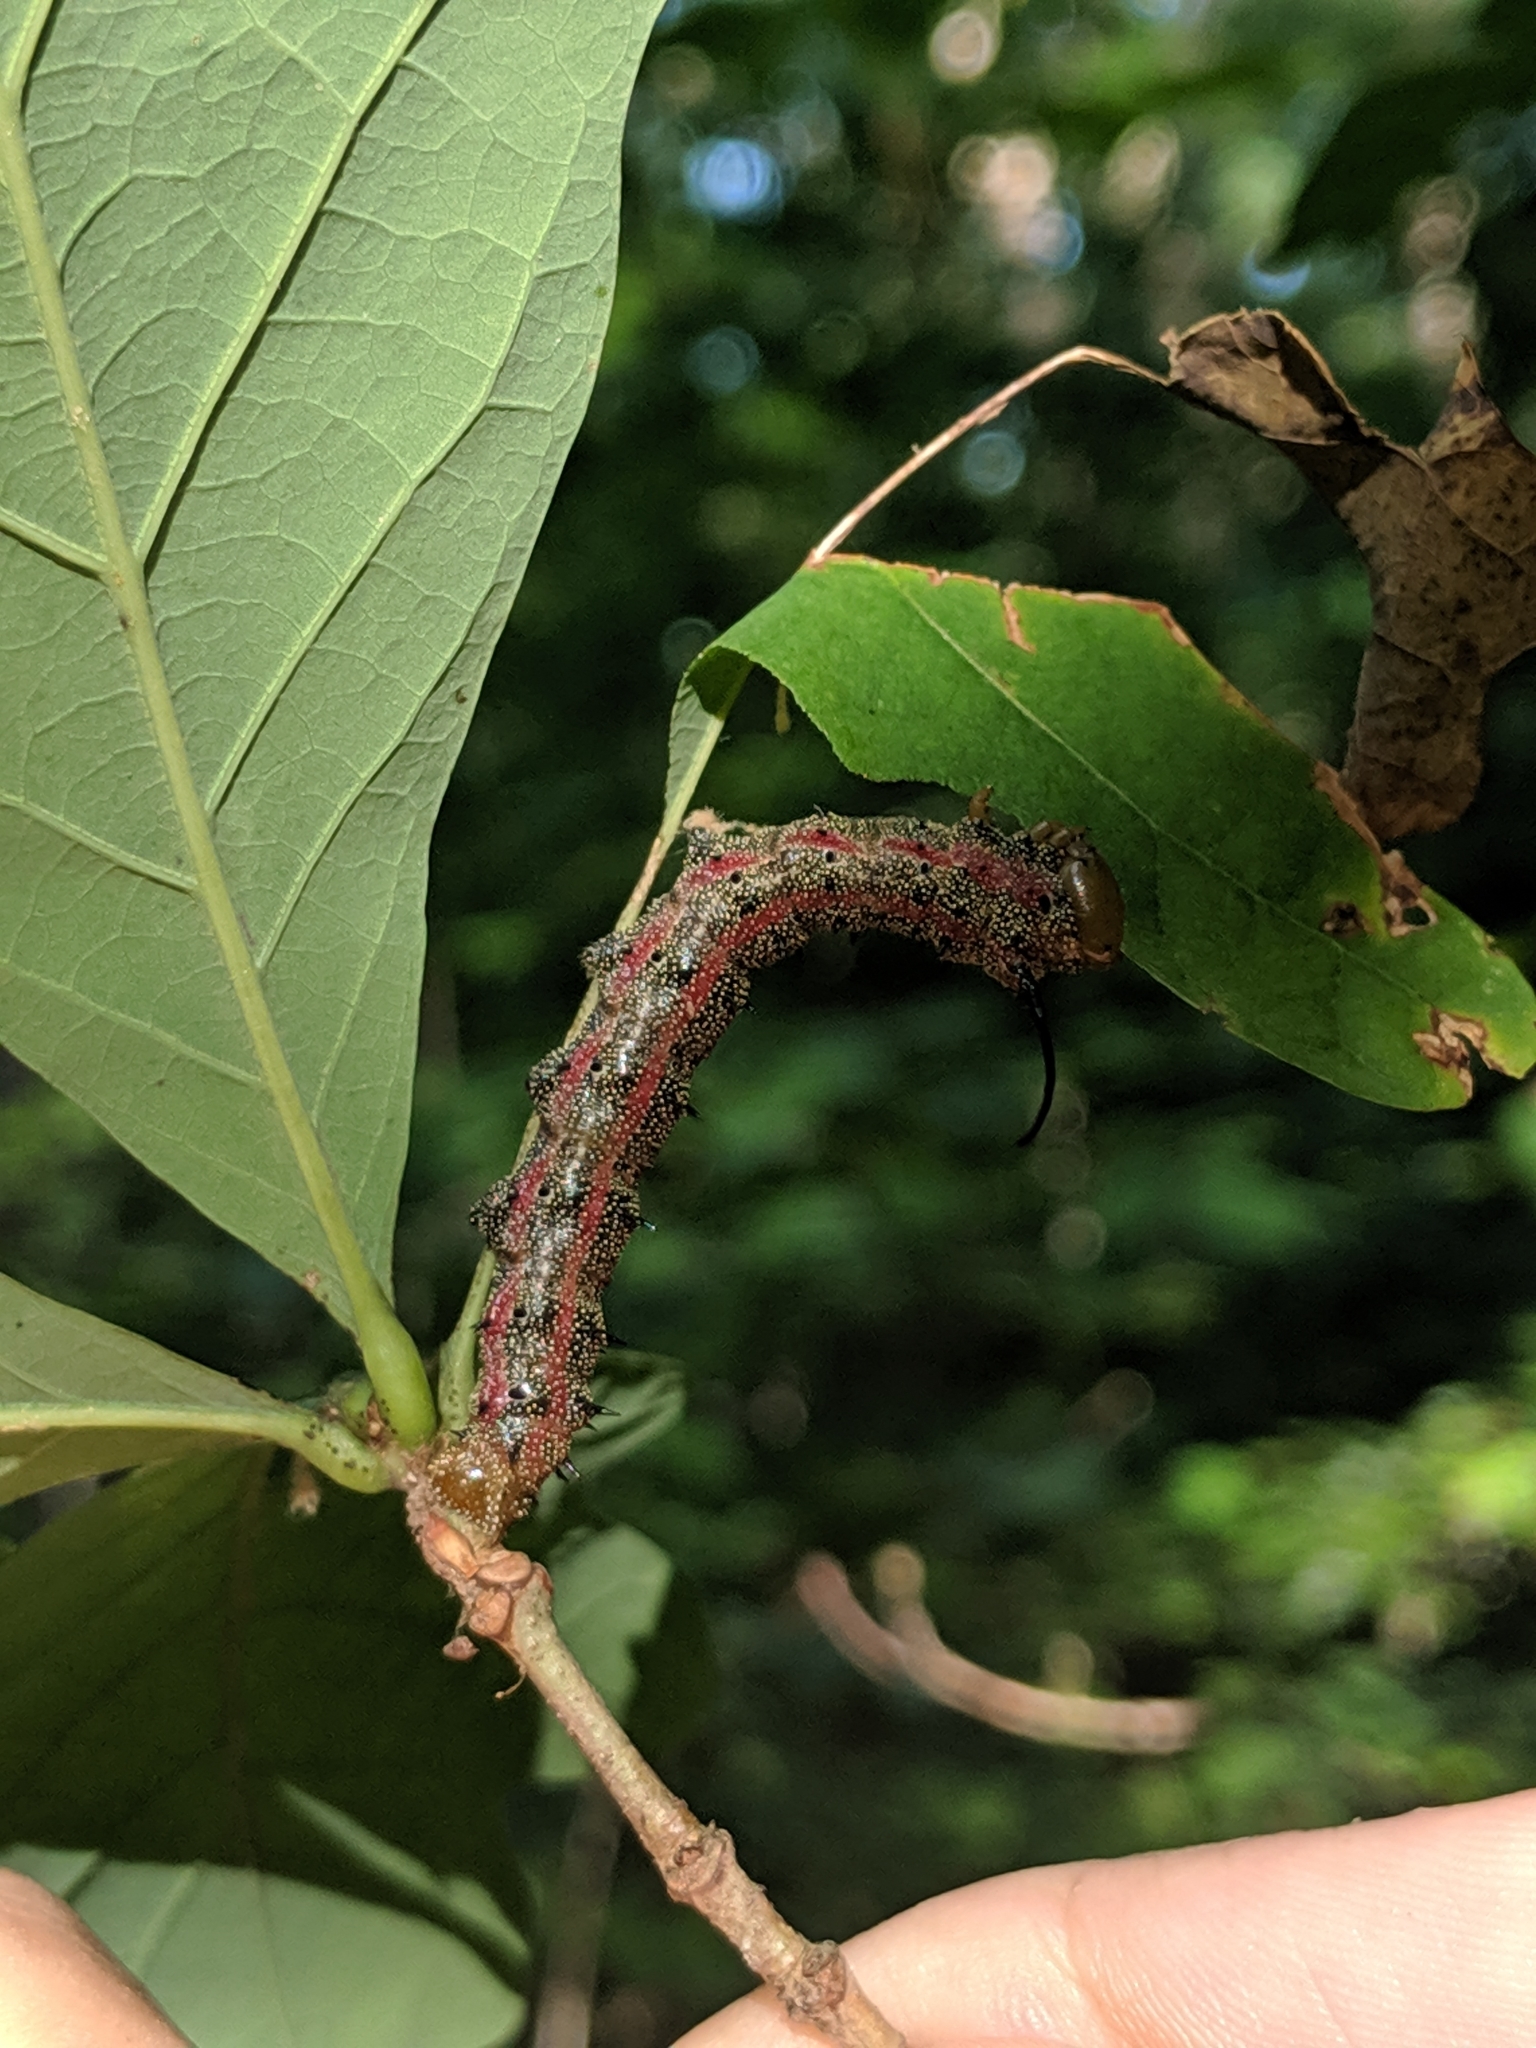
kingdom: Animalia
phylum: Arthropoda
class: Insecta
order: Lepidoptera
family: Saturniidae
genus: Anisota
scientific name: Anisota virginiensis
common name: Pink striped oakworm moth
